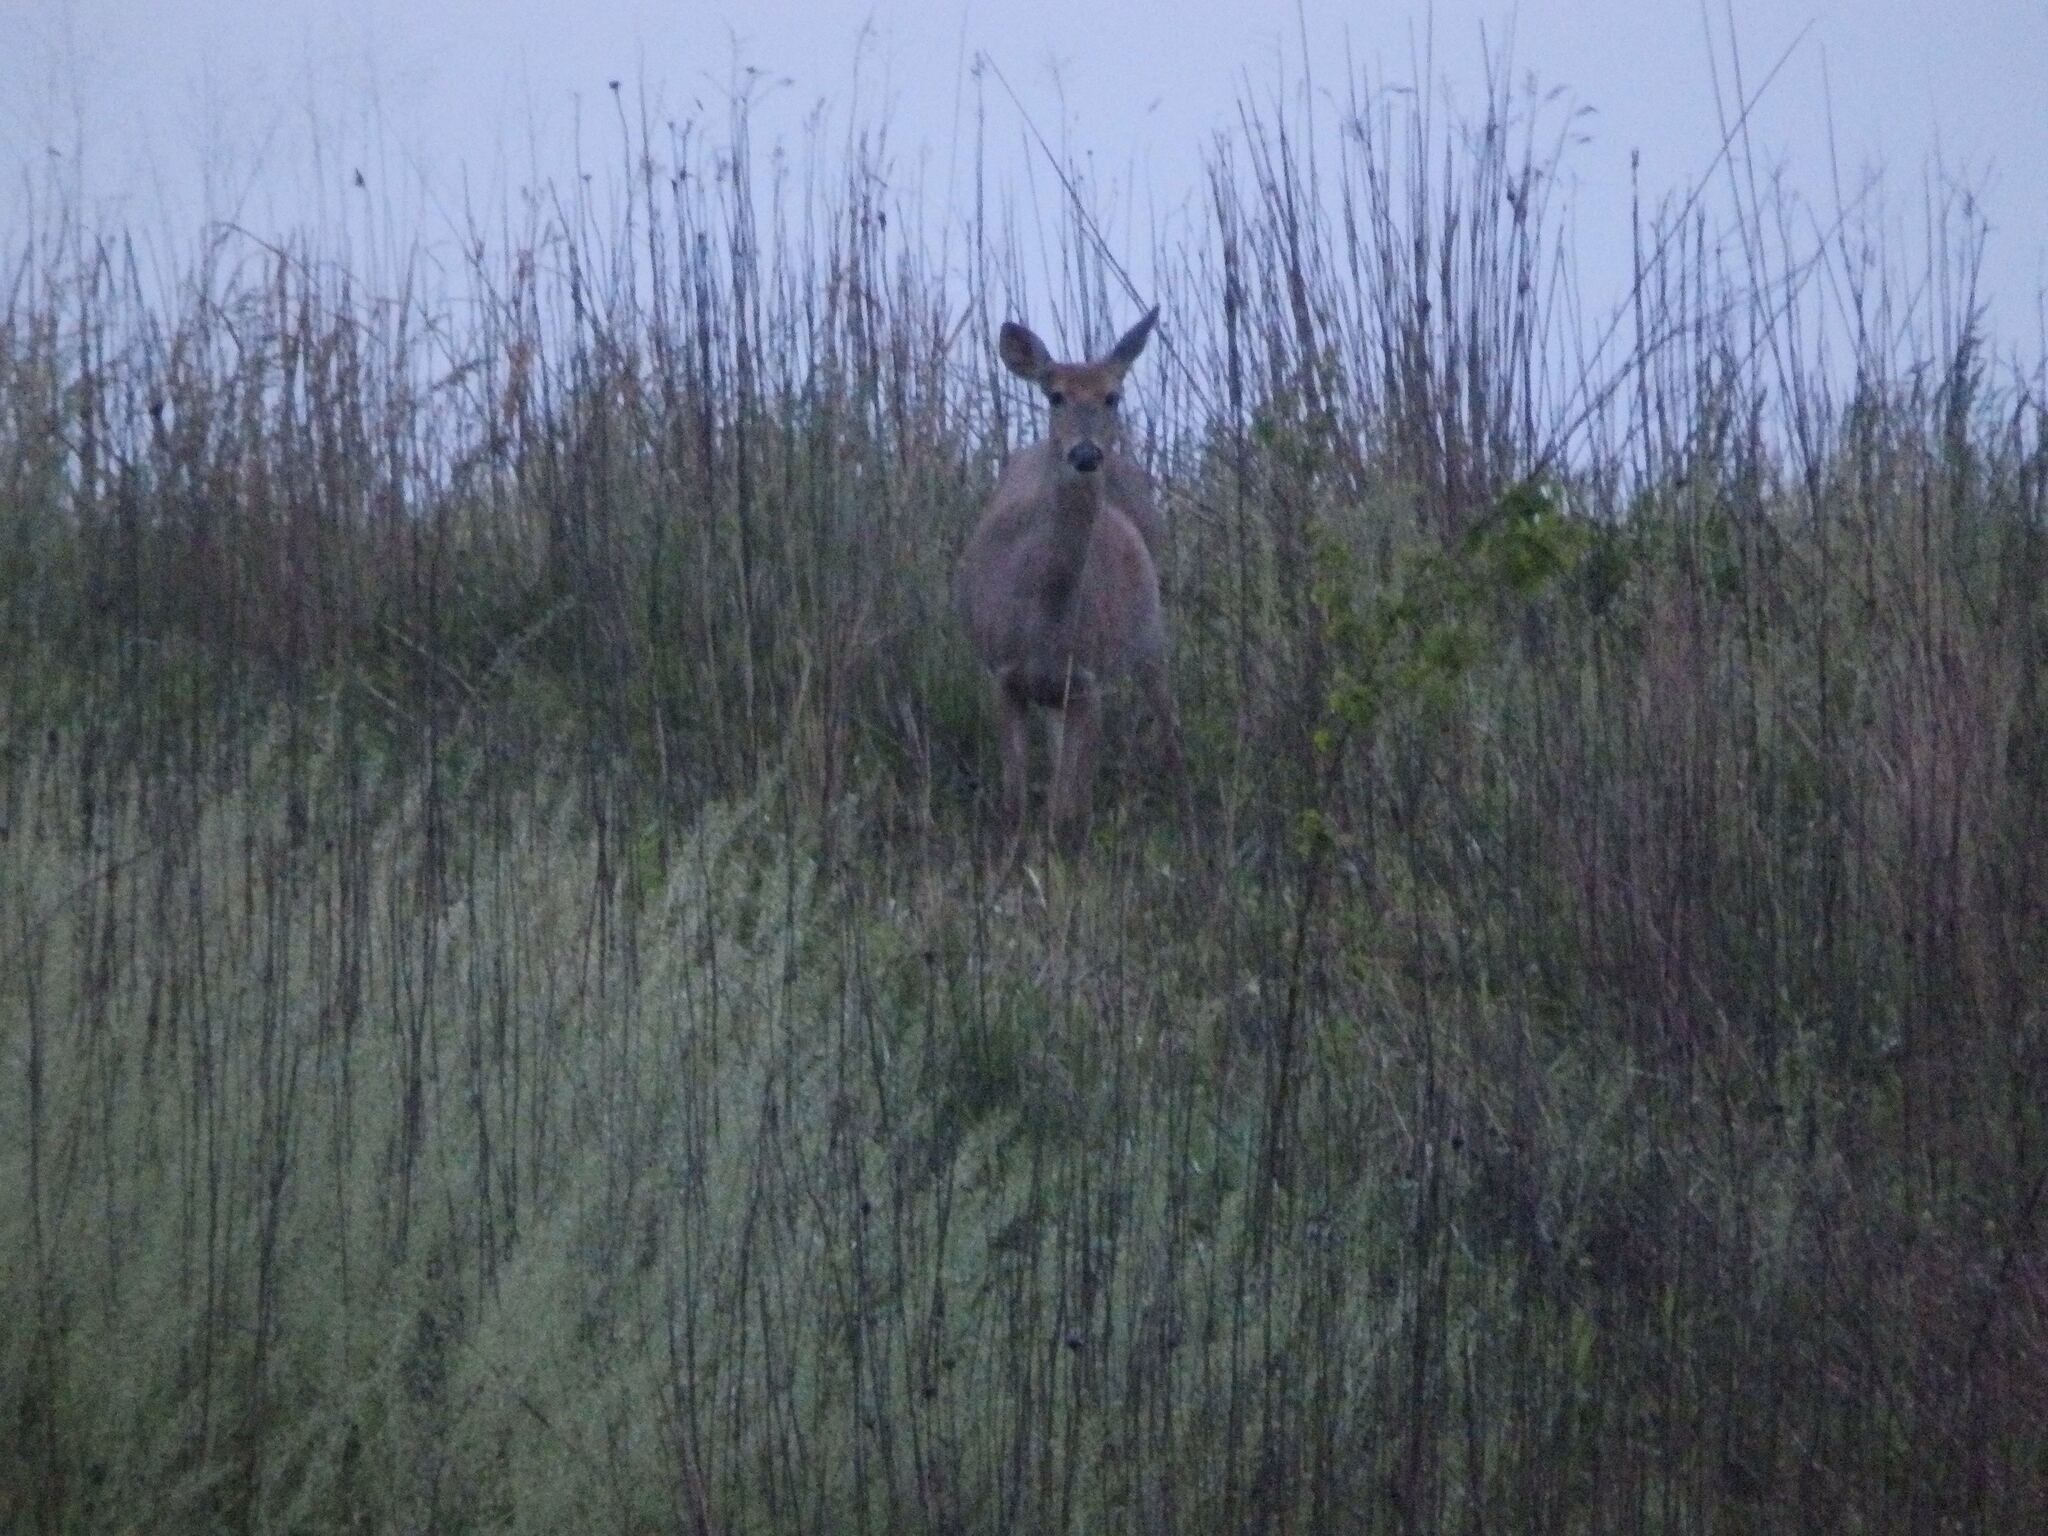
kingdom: Animalia
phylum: Chordata
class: Mammalia
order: Artiodactyla
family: Cervidae
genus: Odocoileus
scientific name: Odocoileus virginianus
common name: White-tailed deer
